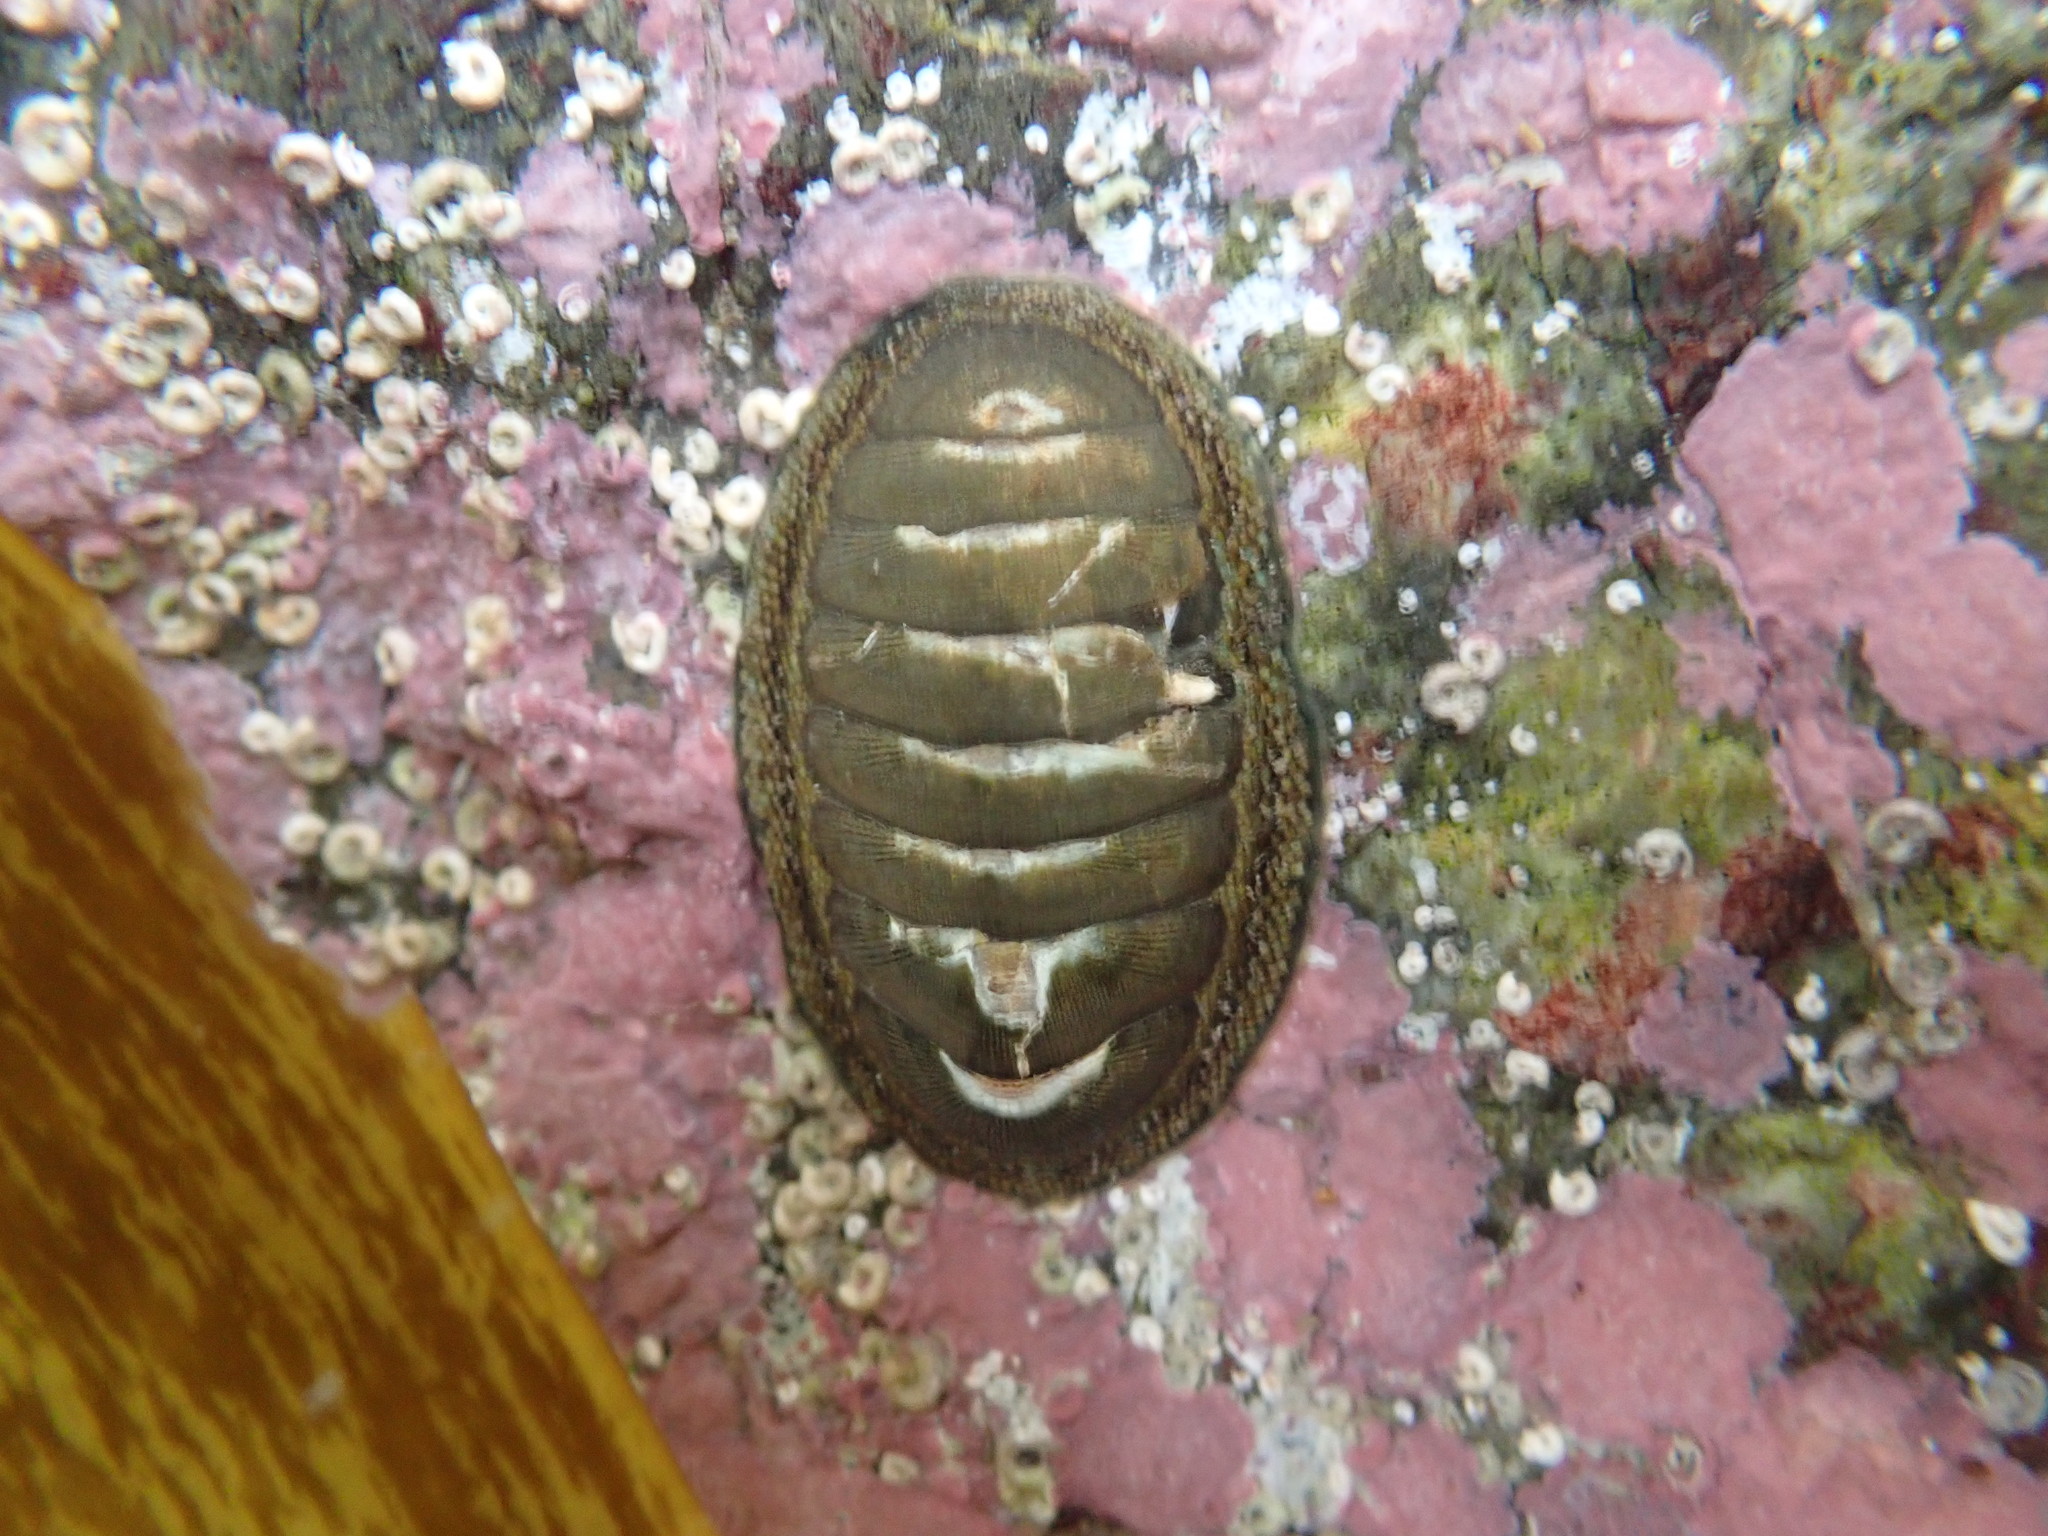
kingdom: Animalia
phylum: Mollusca
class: Polyplacophora
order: Chitonida
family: Chitonidae
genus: Chiton
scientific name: Chiton glaucus
